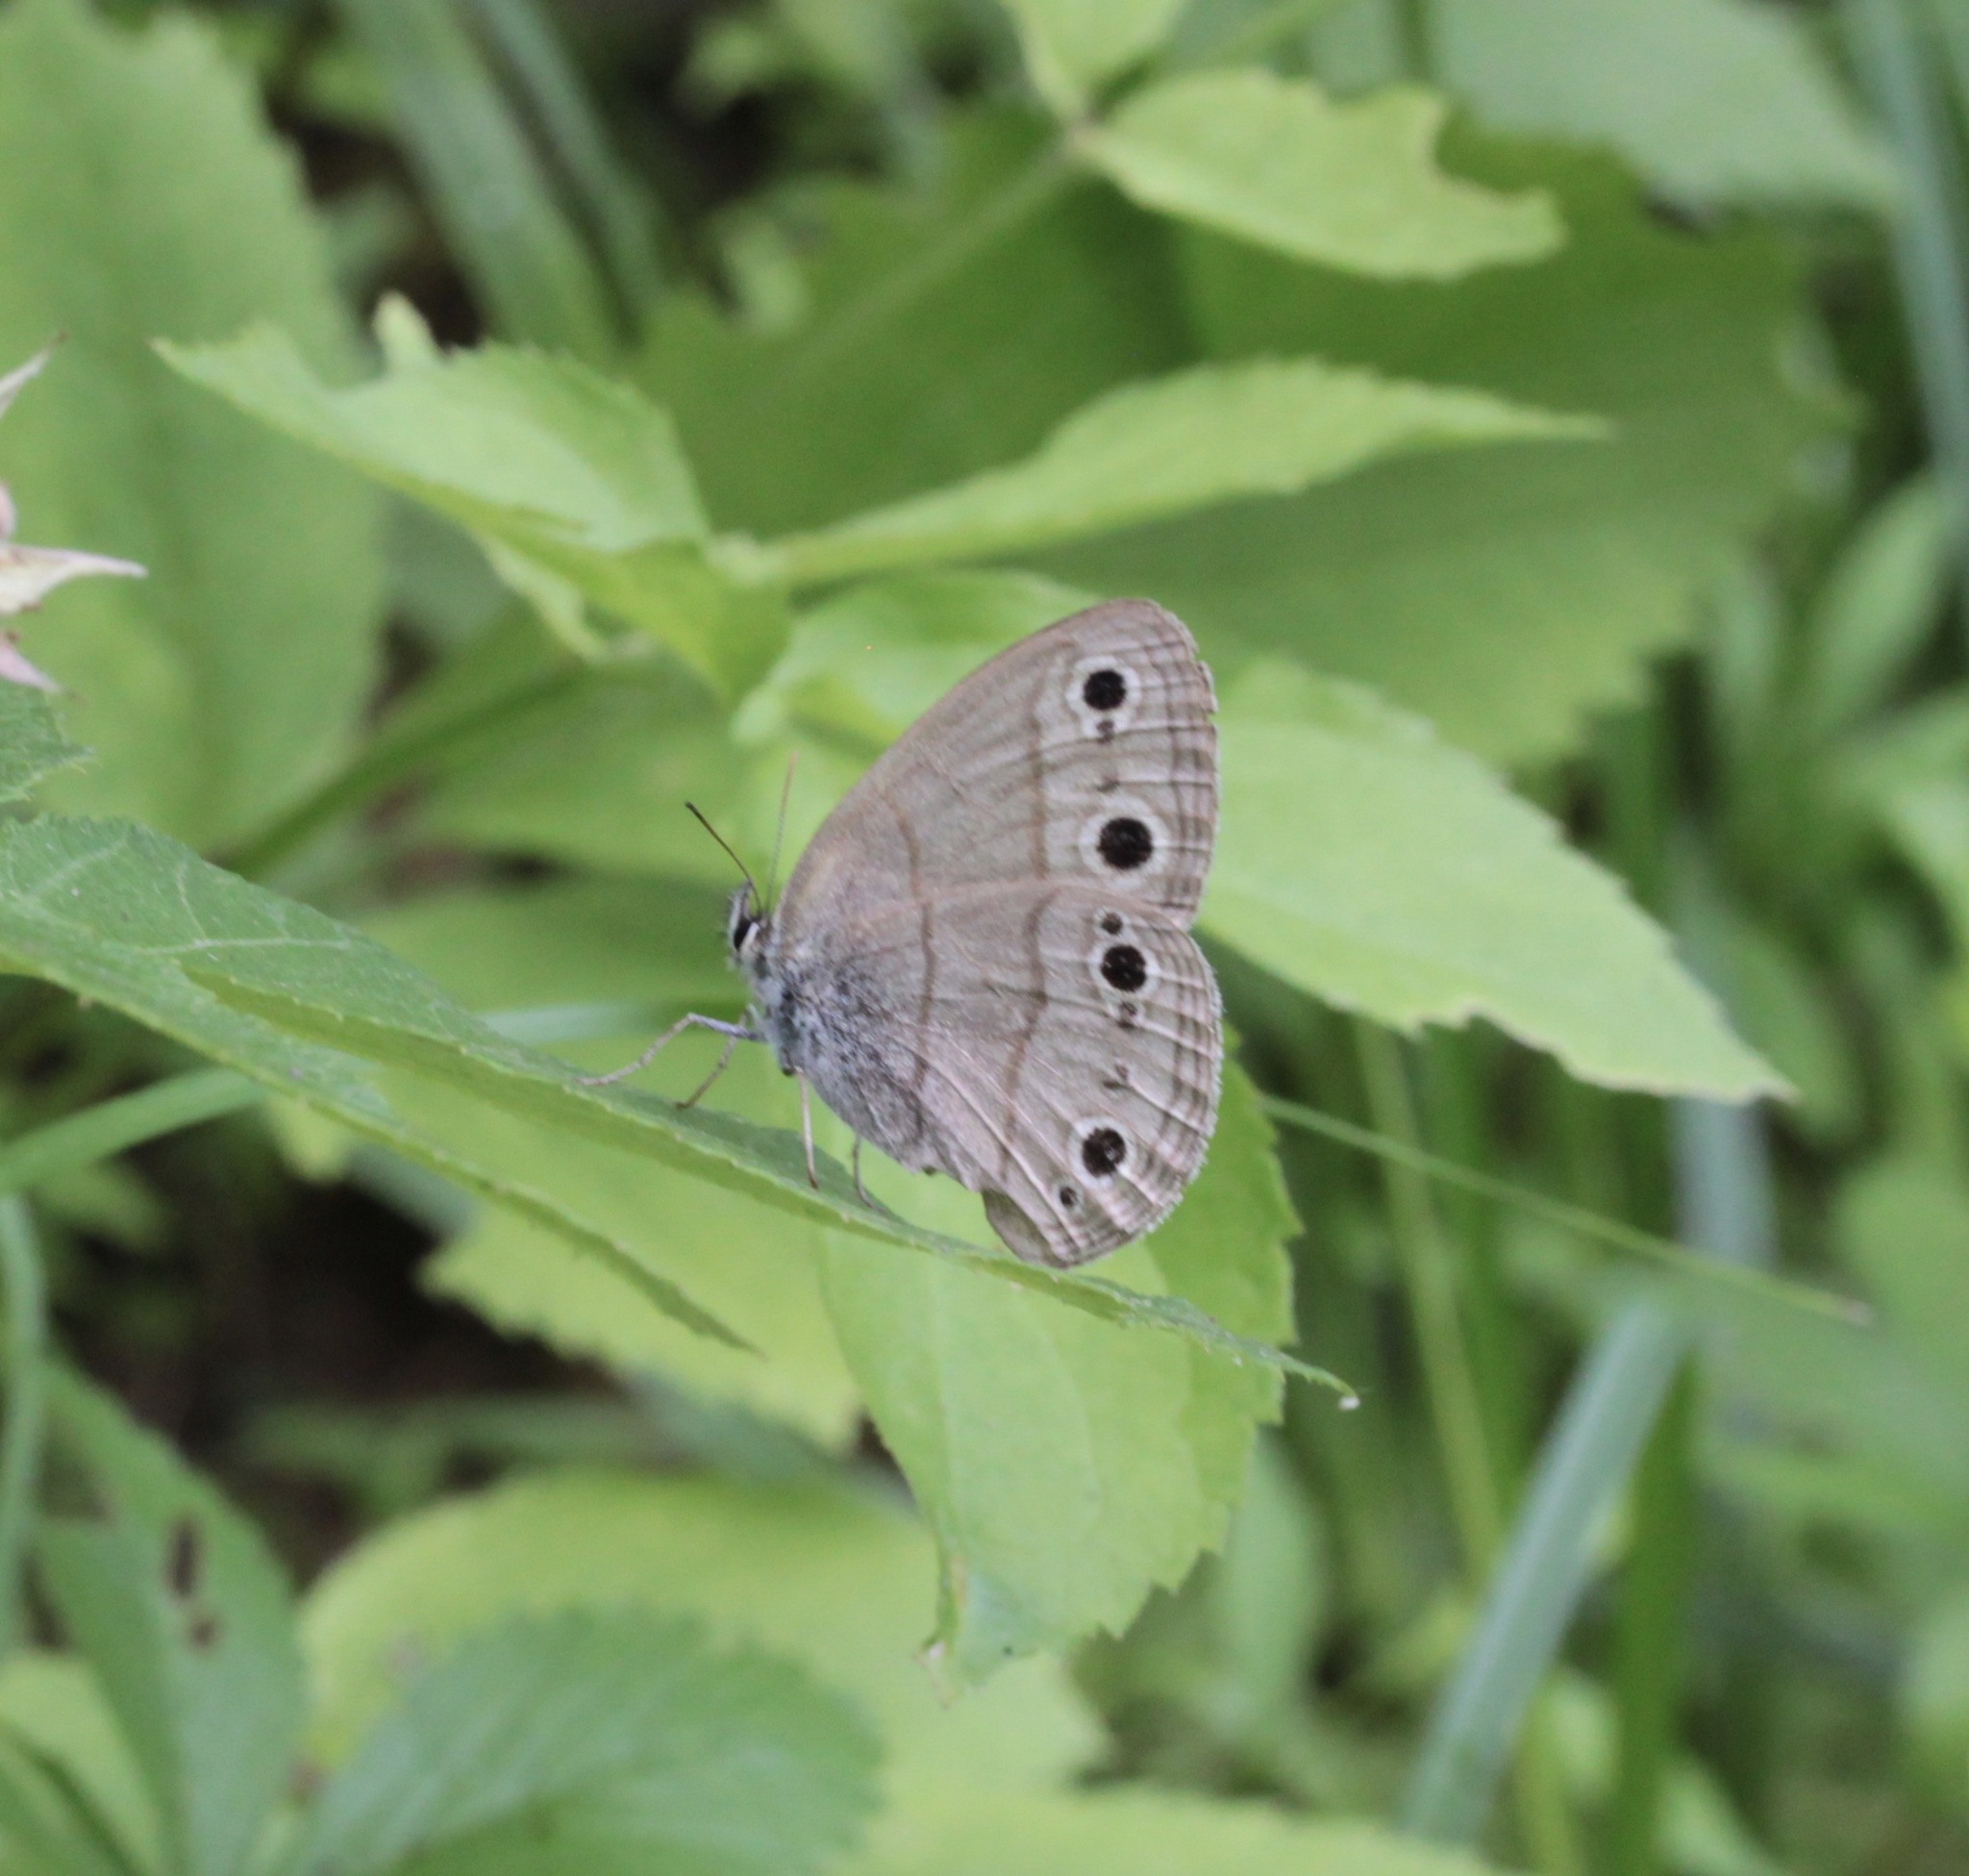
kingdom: Animalia
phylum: Arthropoda
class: Insecta
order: Lepidoptera
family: Nymphalidae
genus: Euptychia
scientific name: Euptychia cymela
